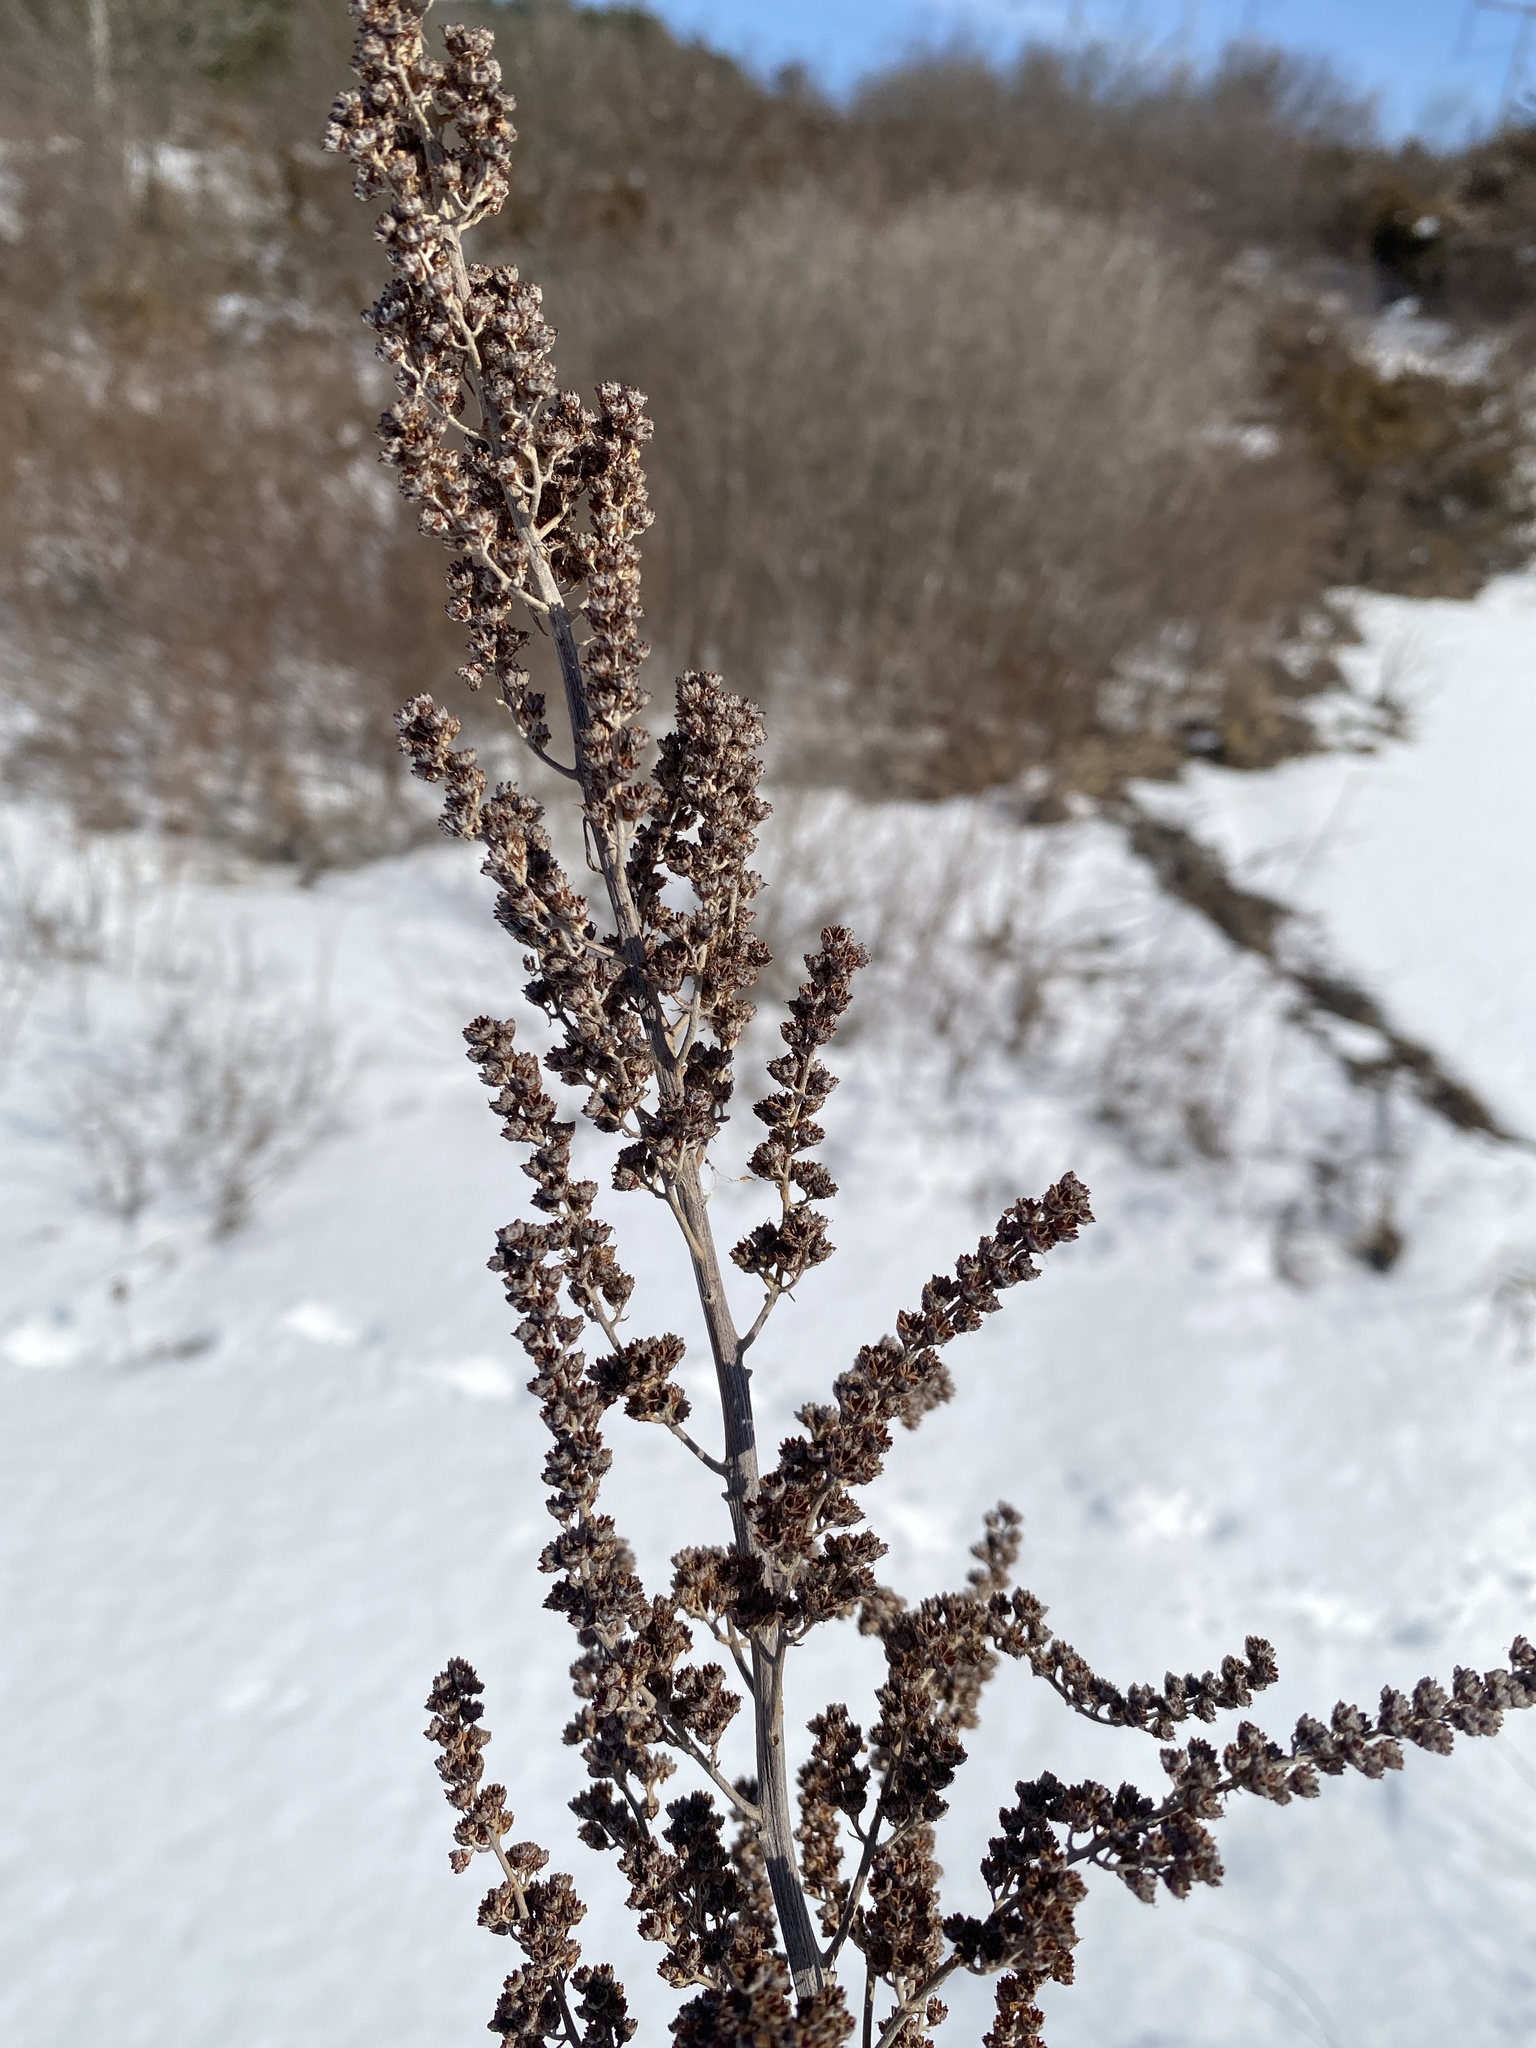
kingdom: Plantae
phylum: Tracheophyta
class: Magnoliopsida
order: Rosales
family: Rosaceae
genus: Spiraea
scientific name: Spiraea tomentosa
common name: Hardhack
